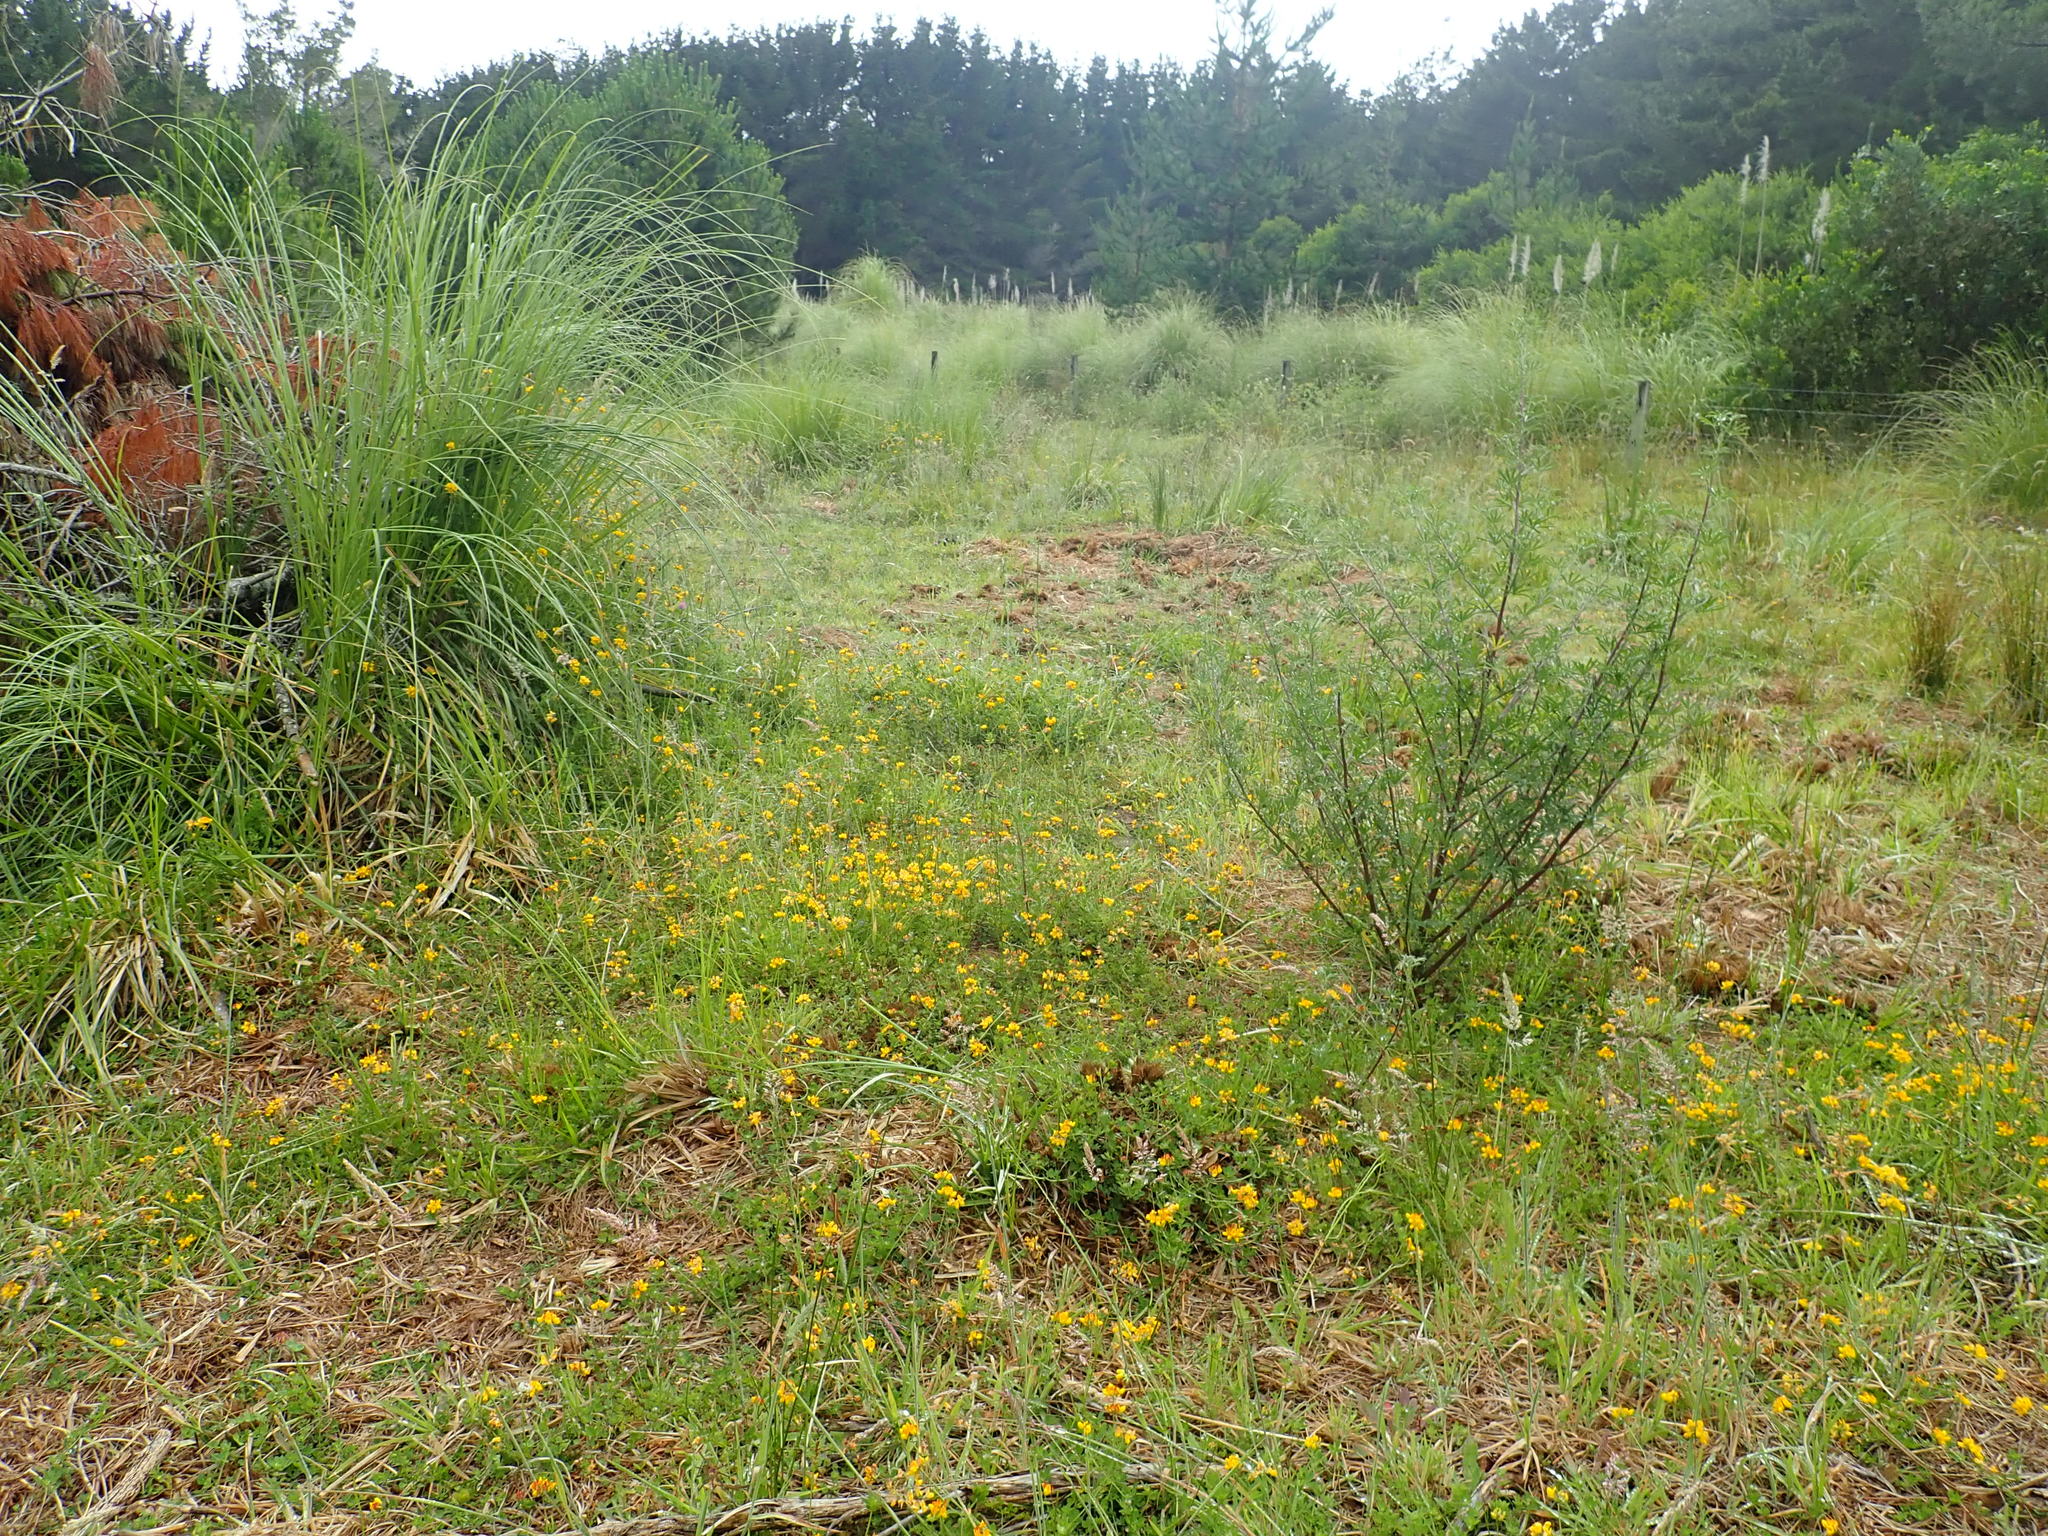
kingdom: Plantae
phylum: Tracheophyta
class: Magnoliopsida
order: Fabales
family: Fabaceae
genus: Lotus
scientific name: Lotus pedunculatus
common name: Greater birdsfoot-trefoil
